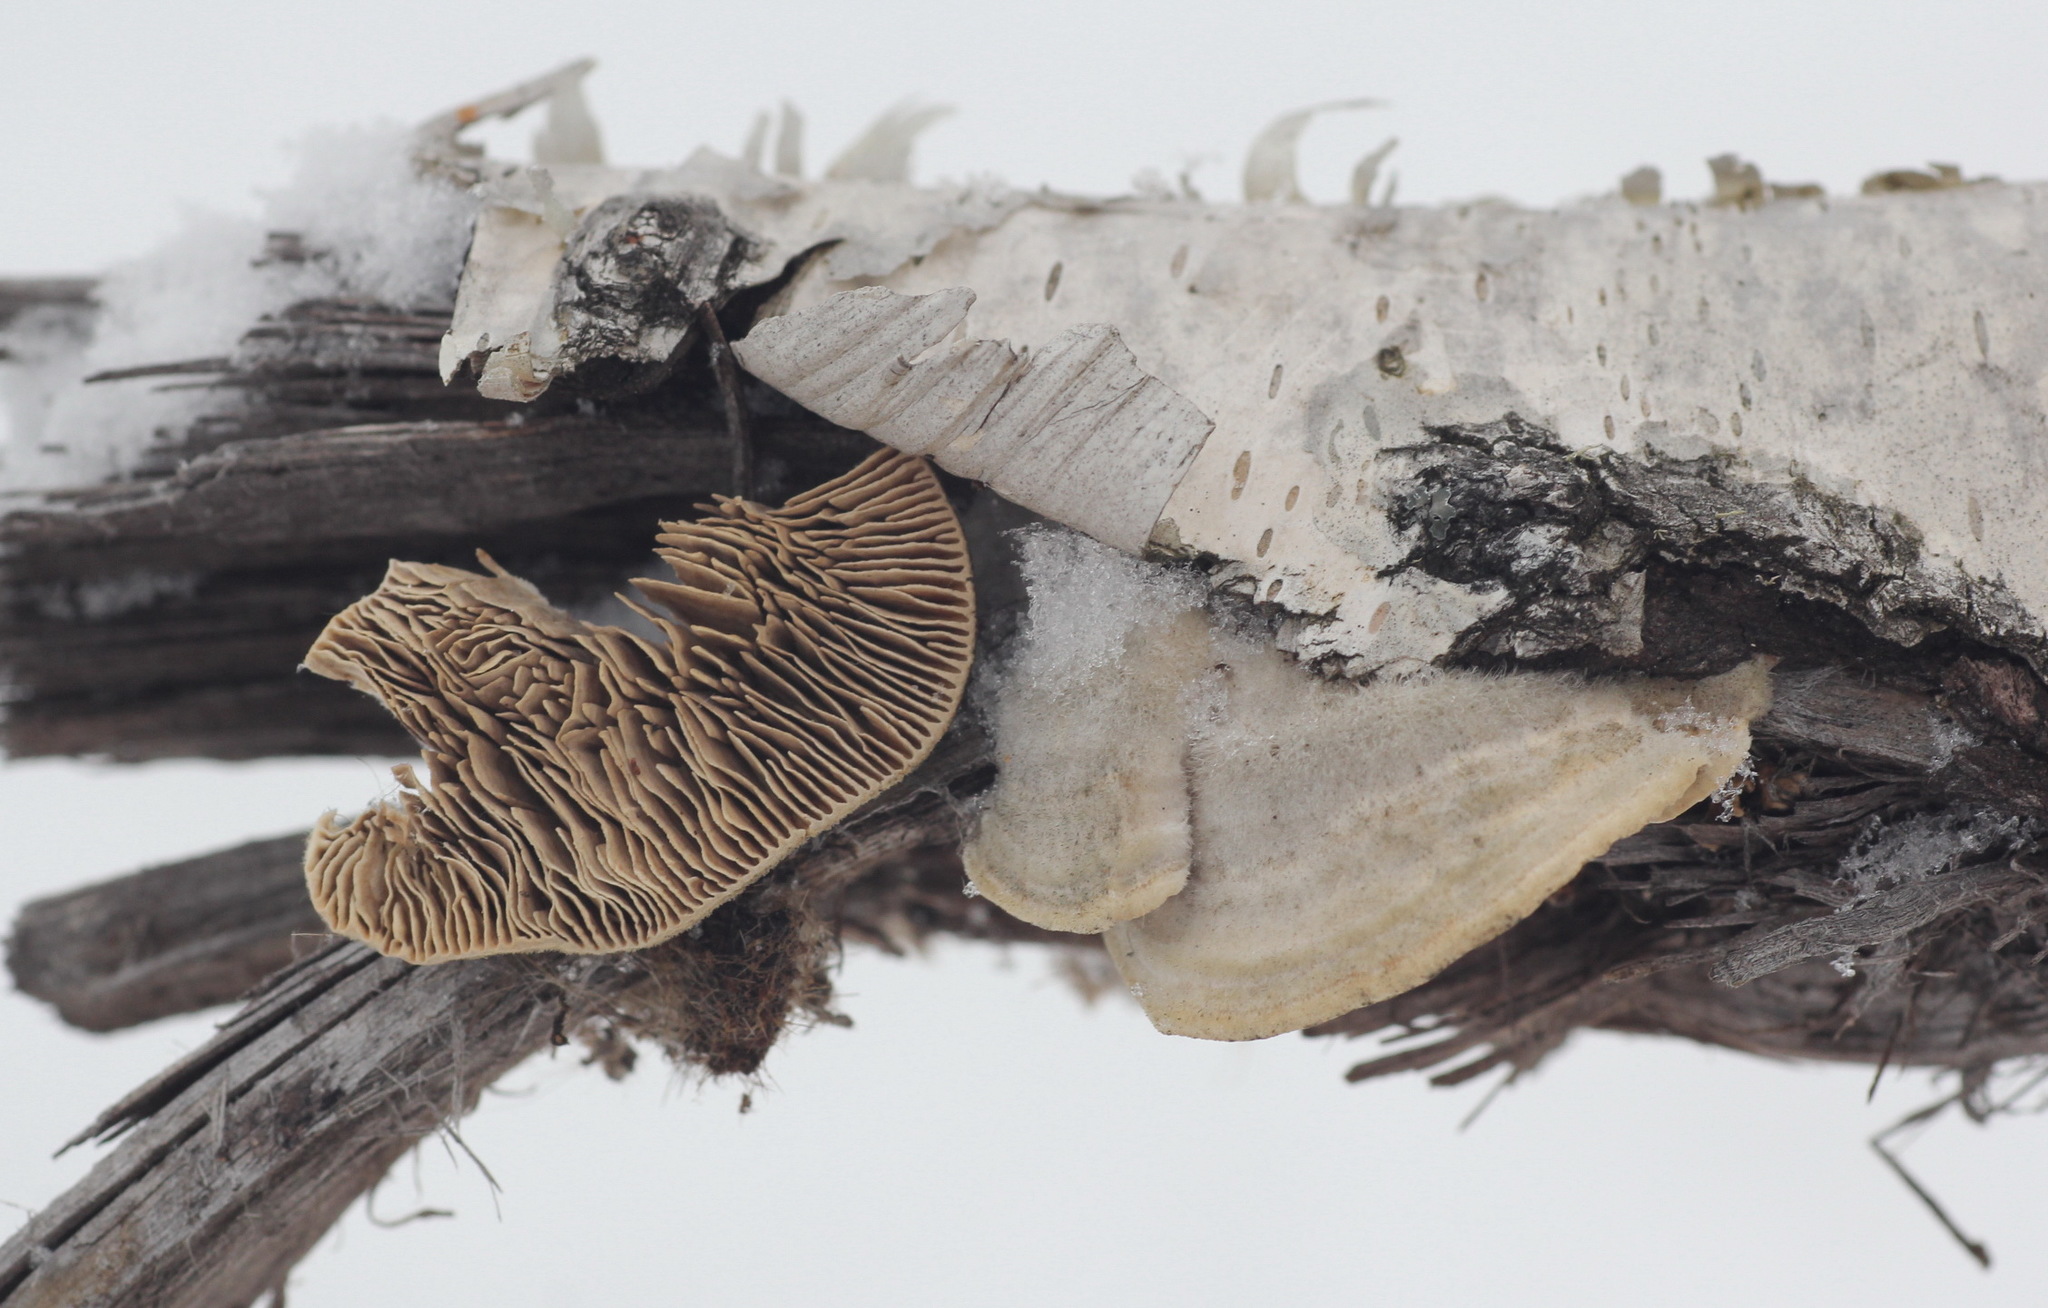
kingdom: Fungi
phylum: Basidiomycota
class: Agaricomycetes
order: Polyporales
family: Polyporaceae
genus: Lenzites
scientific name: Lenzites betulinus
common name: Birch mazegill
